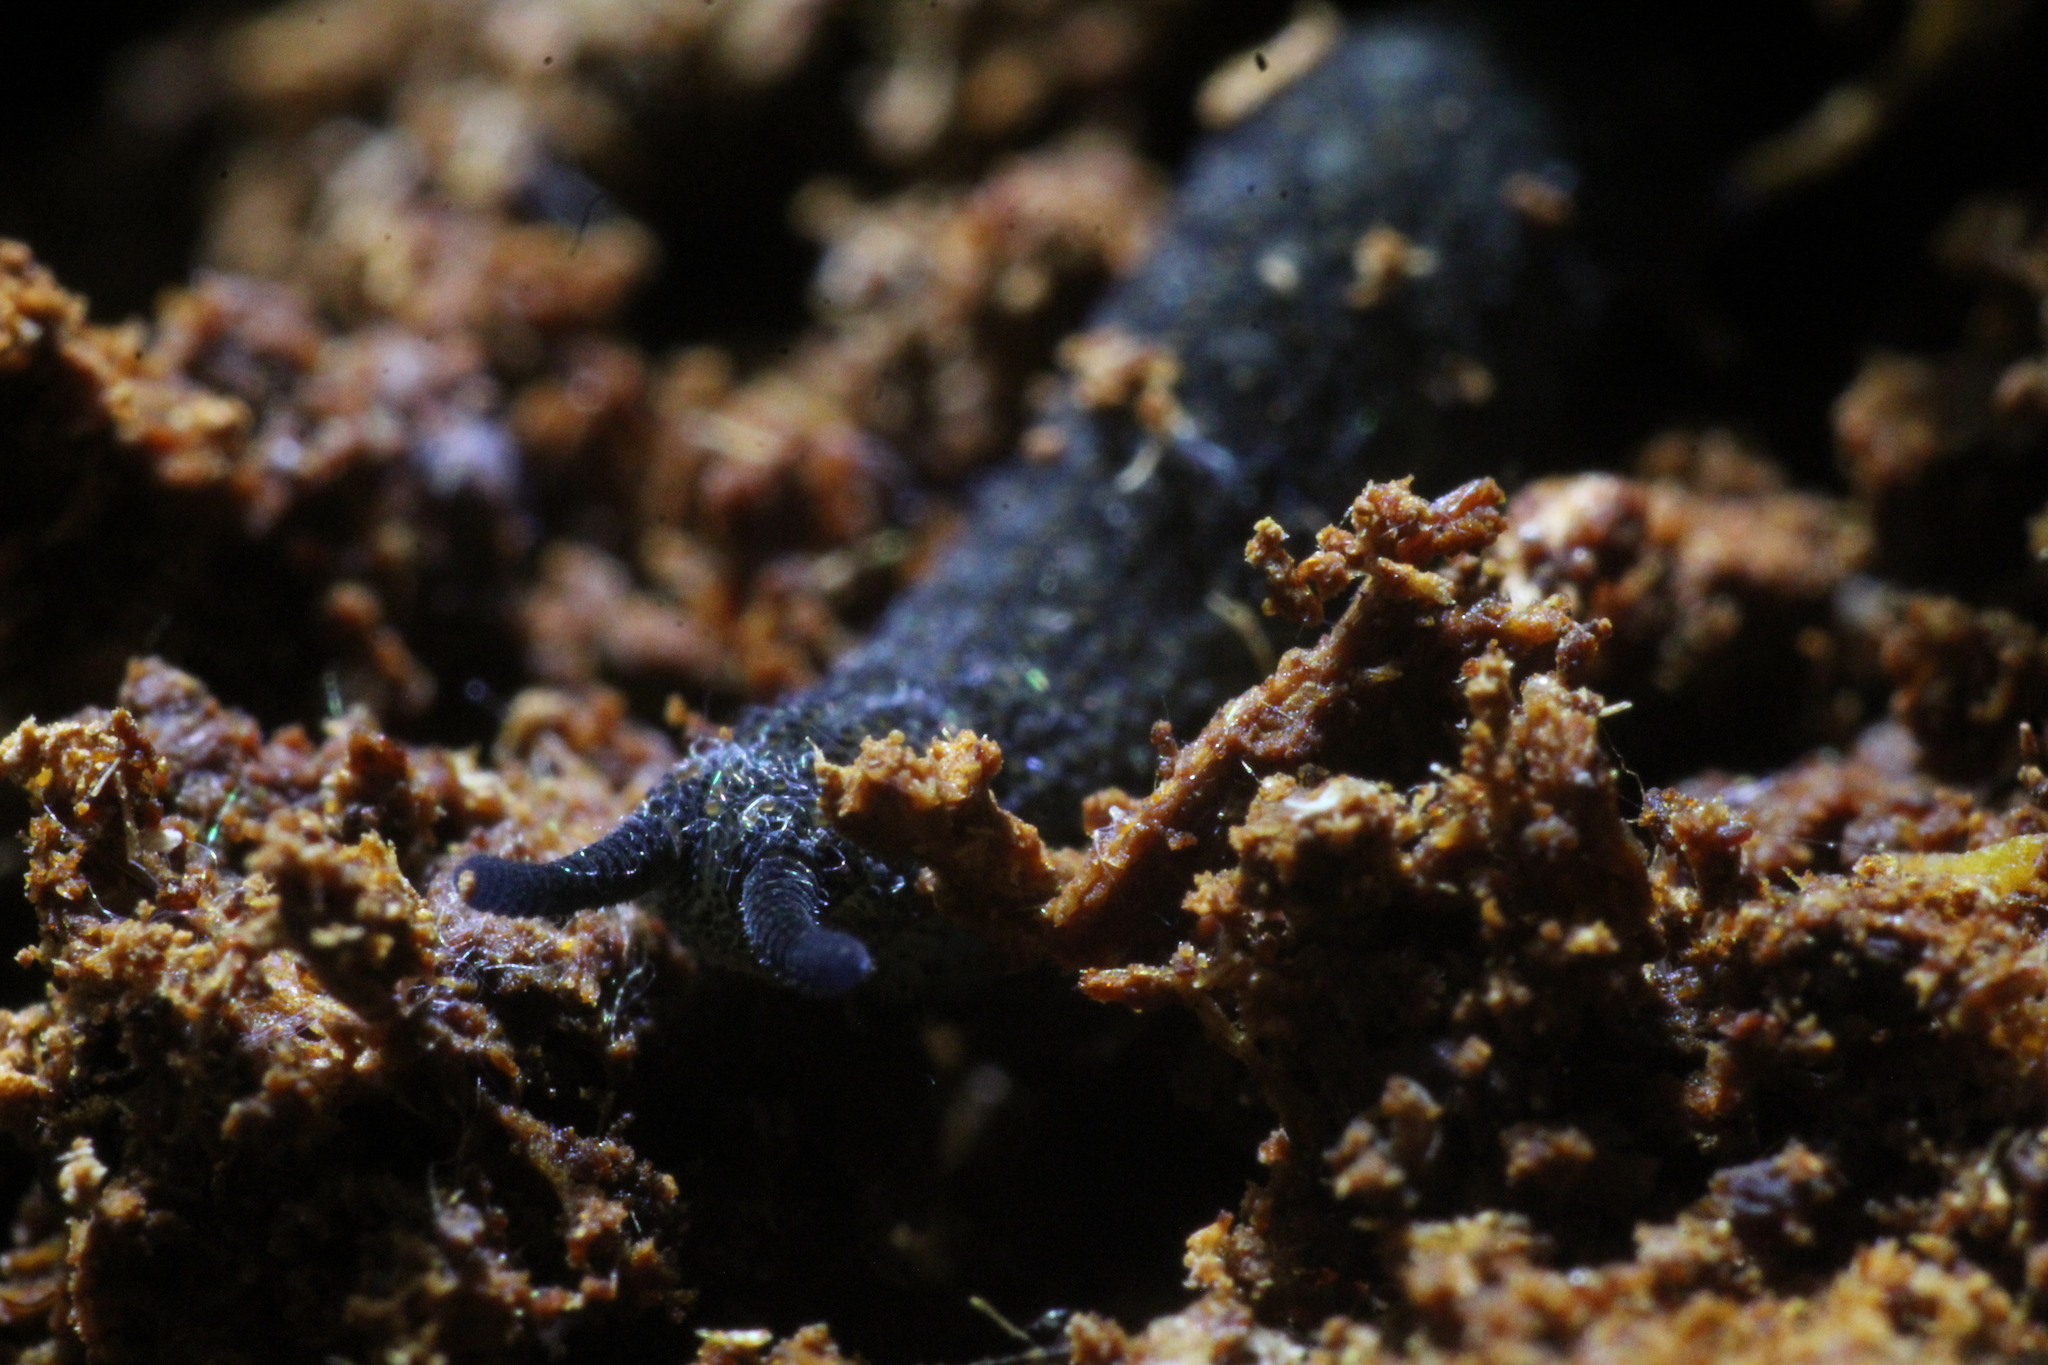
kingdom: Animalia
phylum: Onychophora
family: Peripatopsidae
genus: Kumbadjena
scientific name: Kumbadjena extrema
